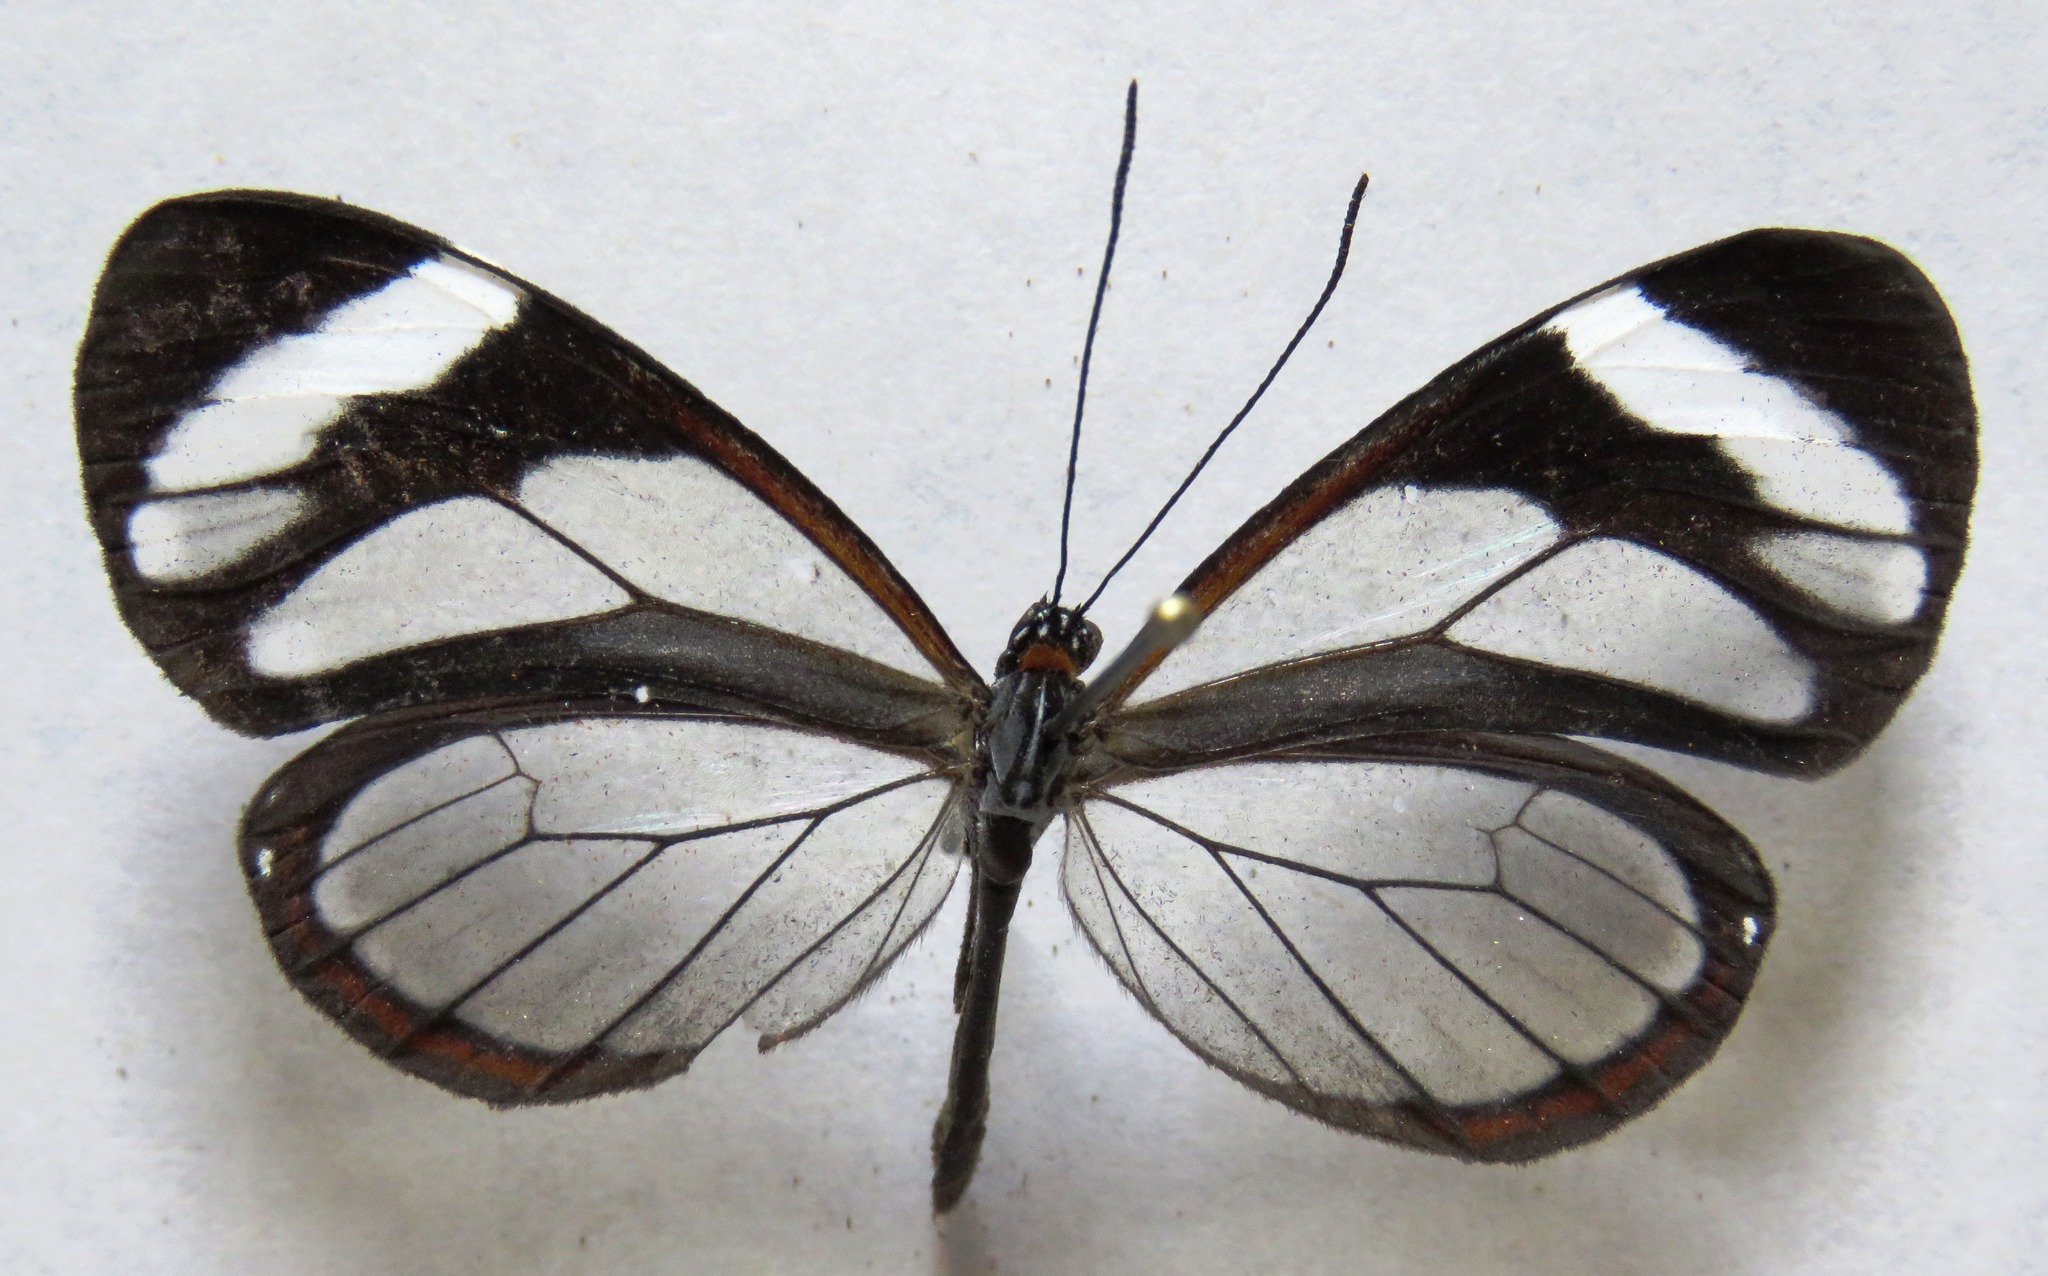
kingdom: Animalia
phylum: Arthropoda
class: Insecta
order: Lepidoptera
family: Nymphalidae
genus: Ithomia
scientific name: Ithomia patilla
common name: Patilla clearwing
